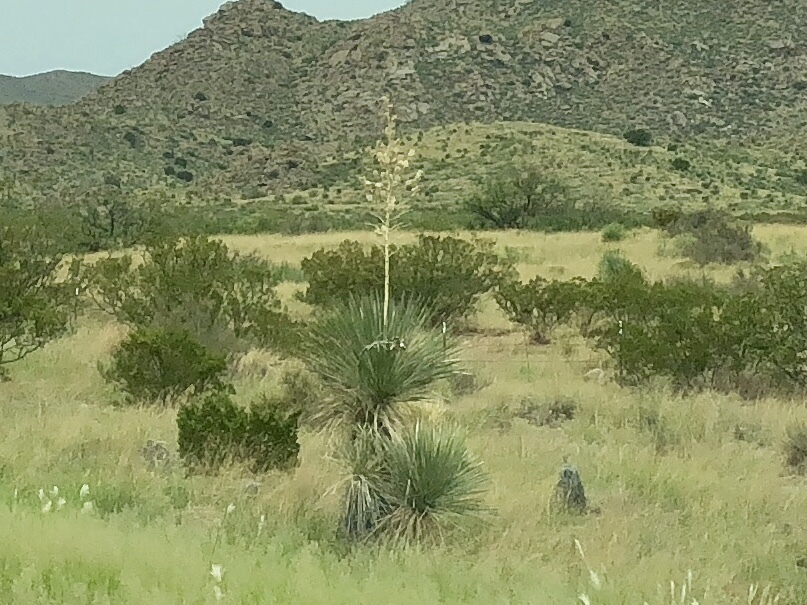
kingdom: Plantae
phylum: Tracheophyta
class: Liliopsida
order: Asparagales
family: Asparagaceae
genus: Yucca
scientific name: Yucca elata
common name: Palmella
